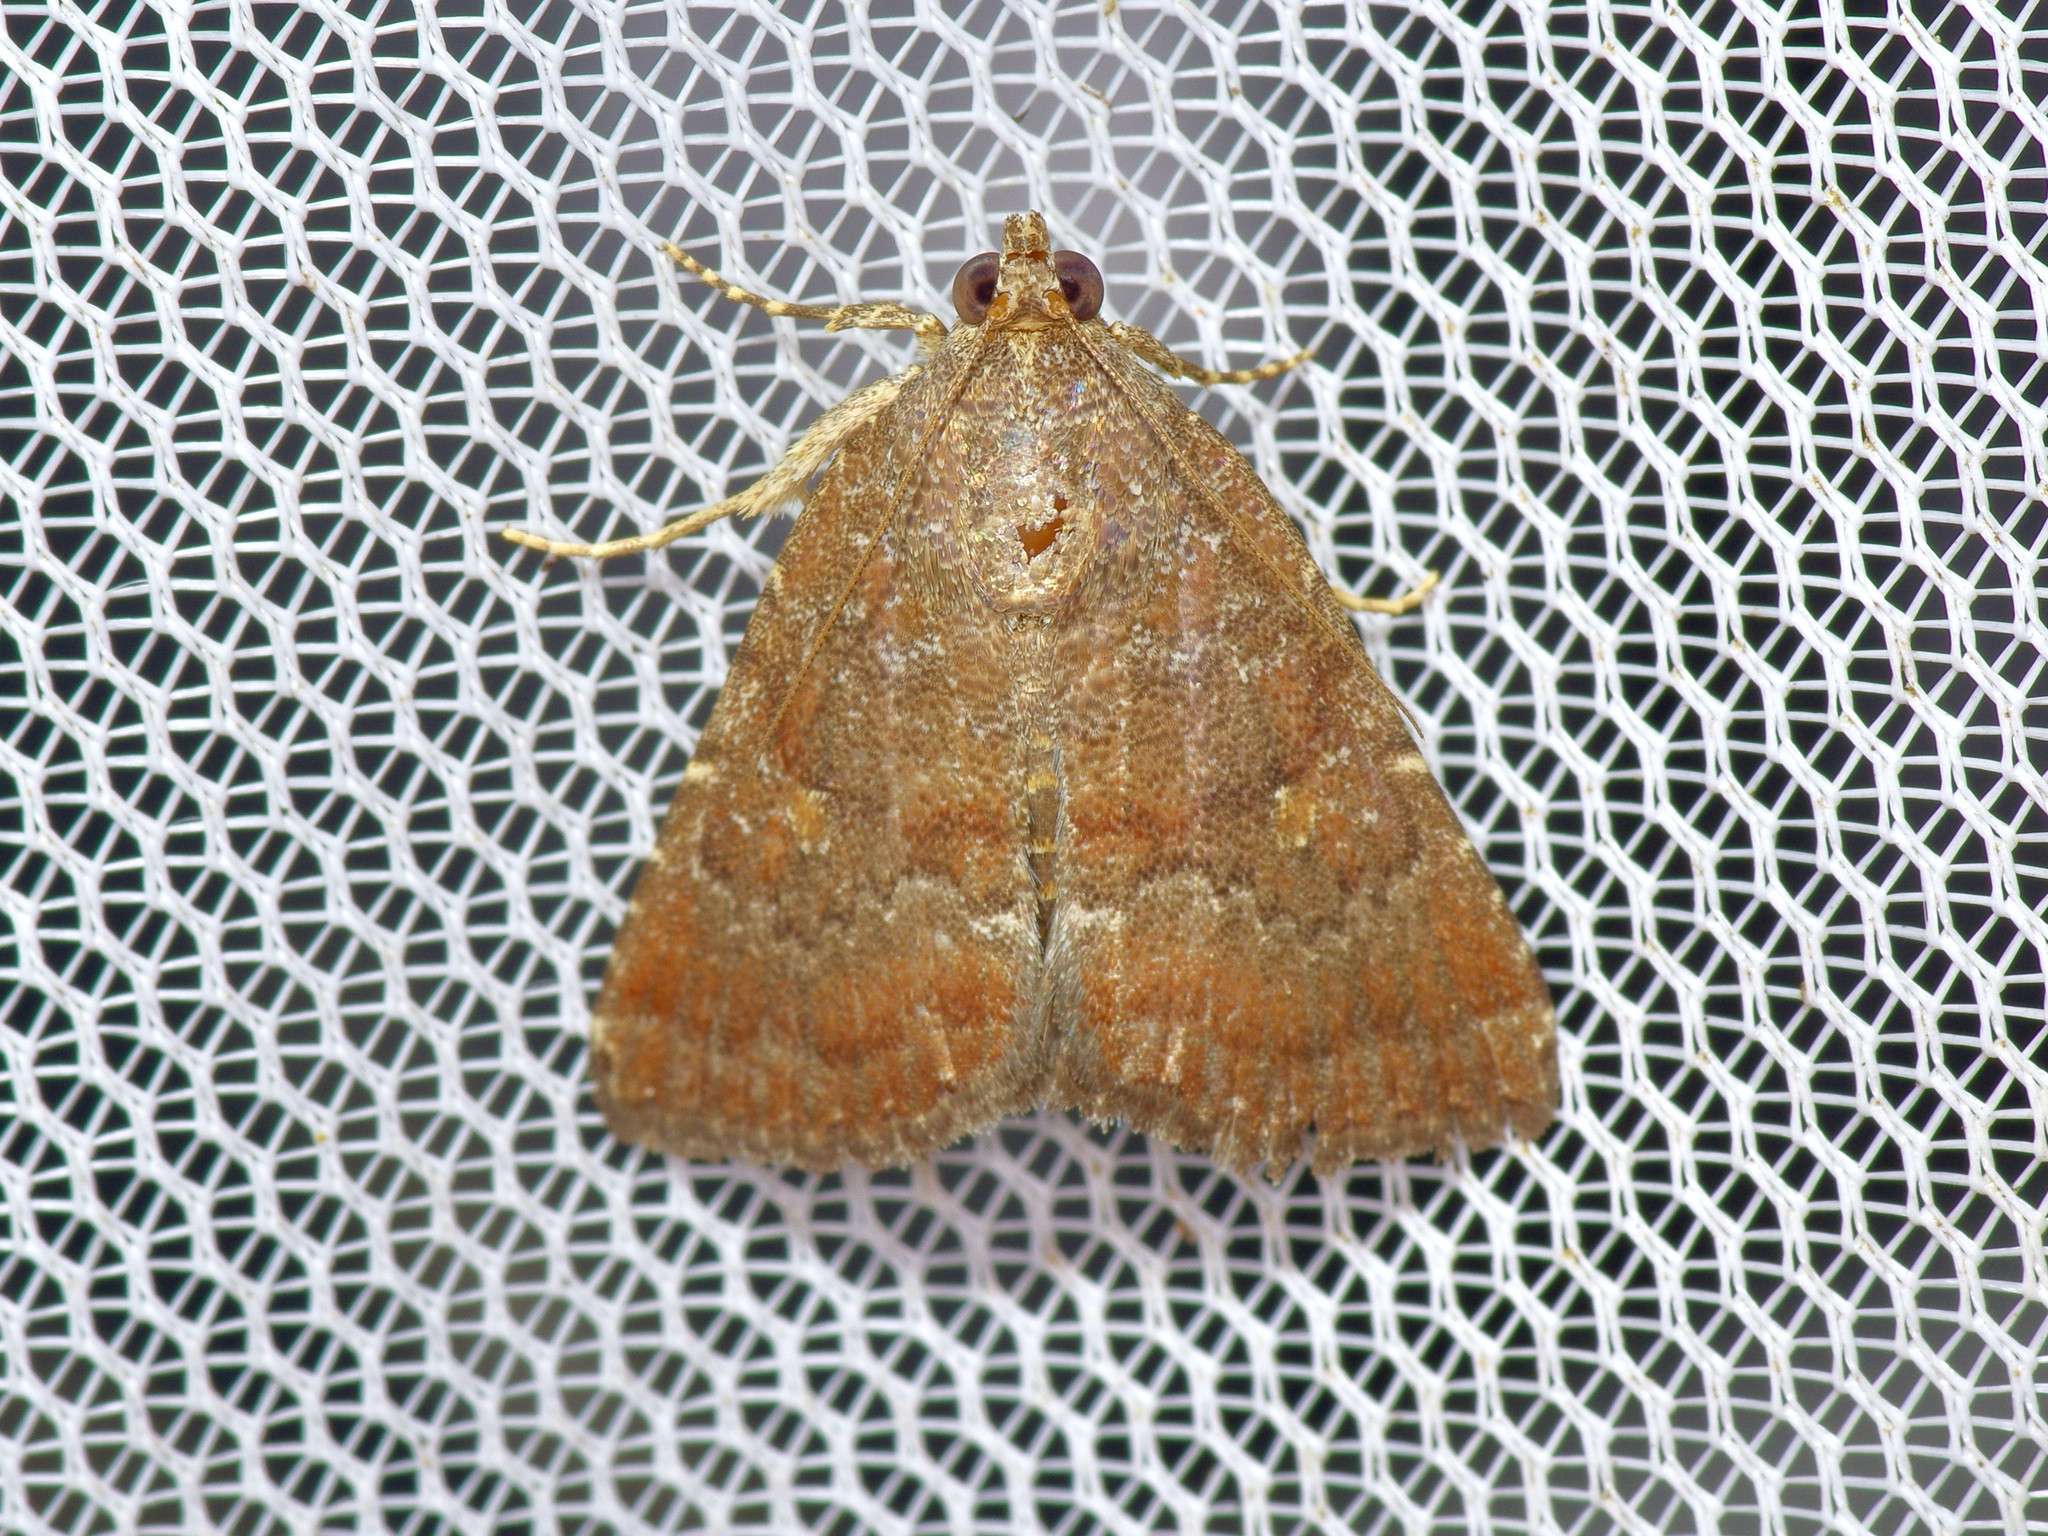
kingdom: Animalia
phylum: Arthropoda
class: Insecta
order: Lepidoptera
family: Noctuidae
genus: Amyna
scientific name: Amyna stricta
